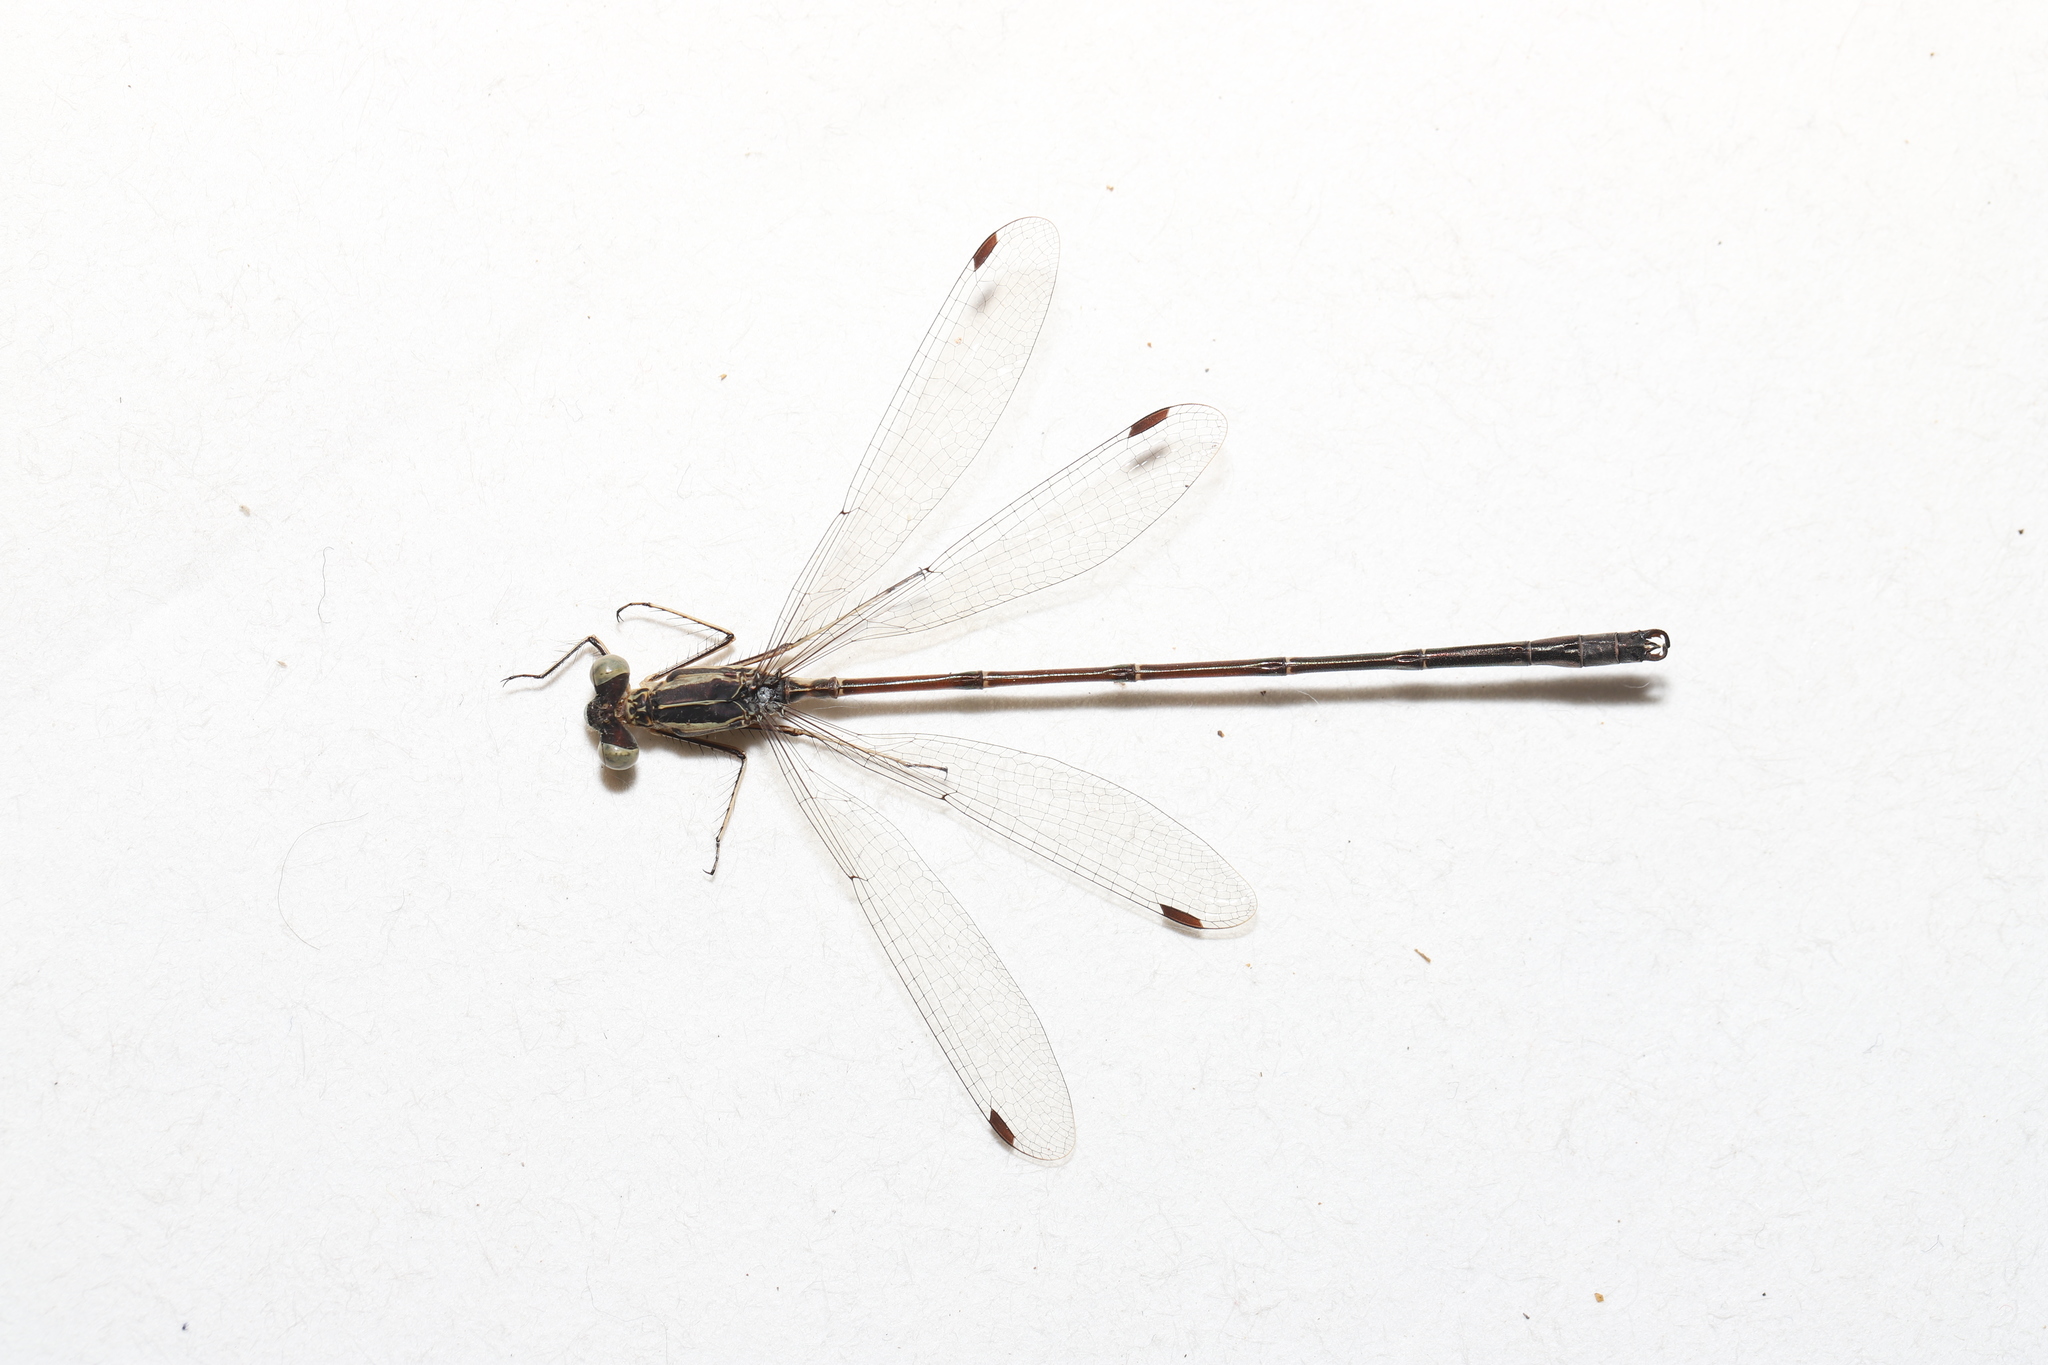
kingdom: Animalia
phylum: Arthropoda
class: Insecta
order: Odonata
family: Lestidae
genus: Lestes
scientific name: Lestes rectangularis
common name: Slender spreadwing
